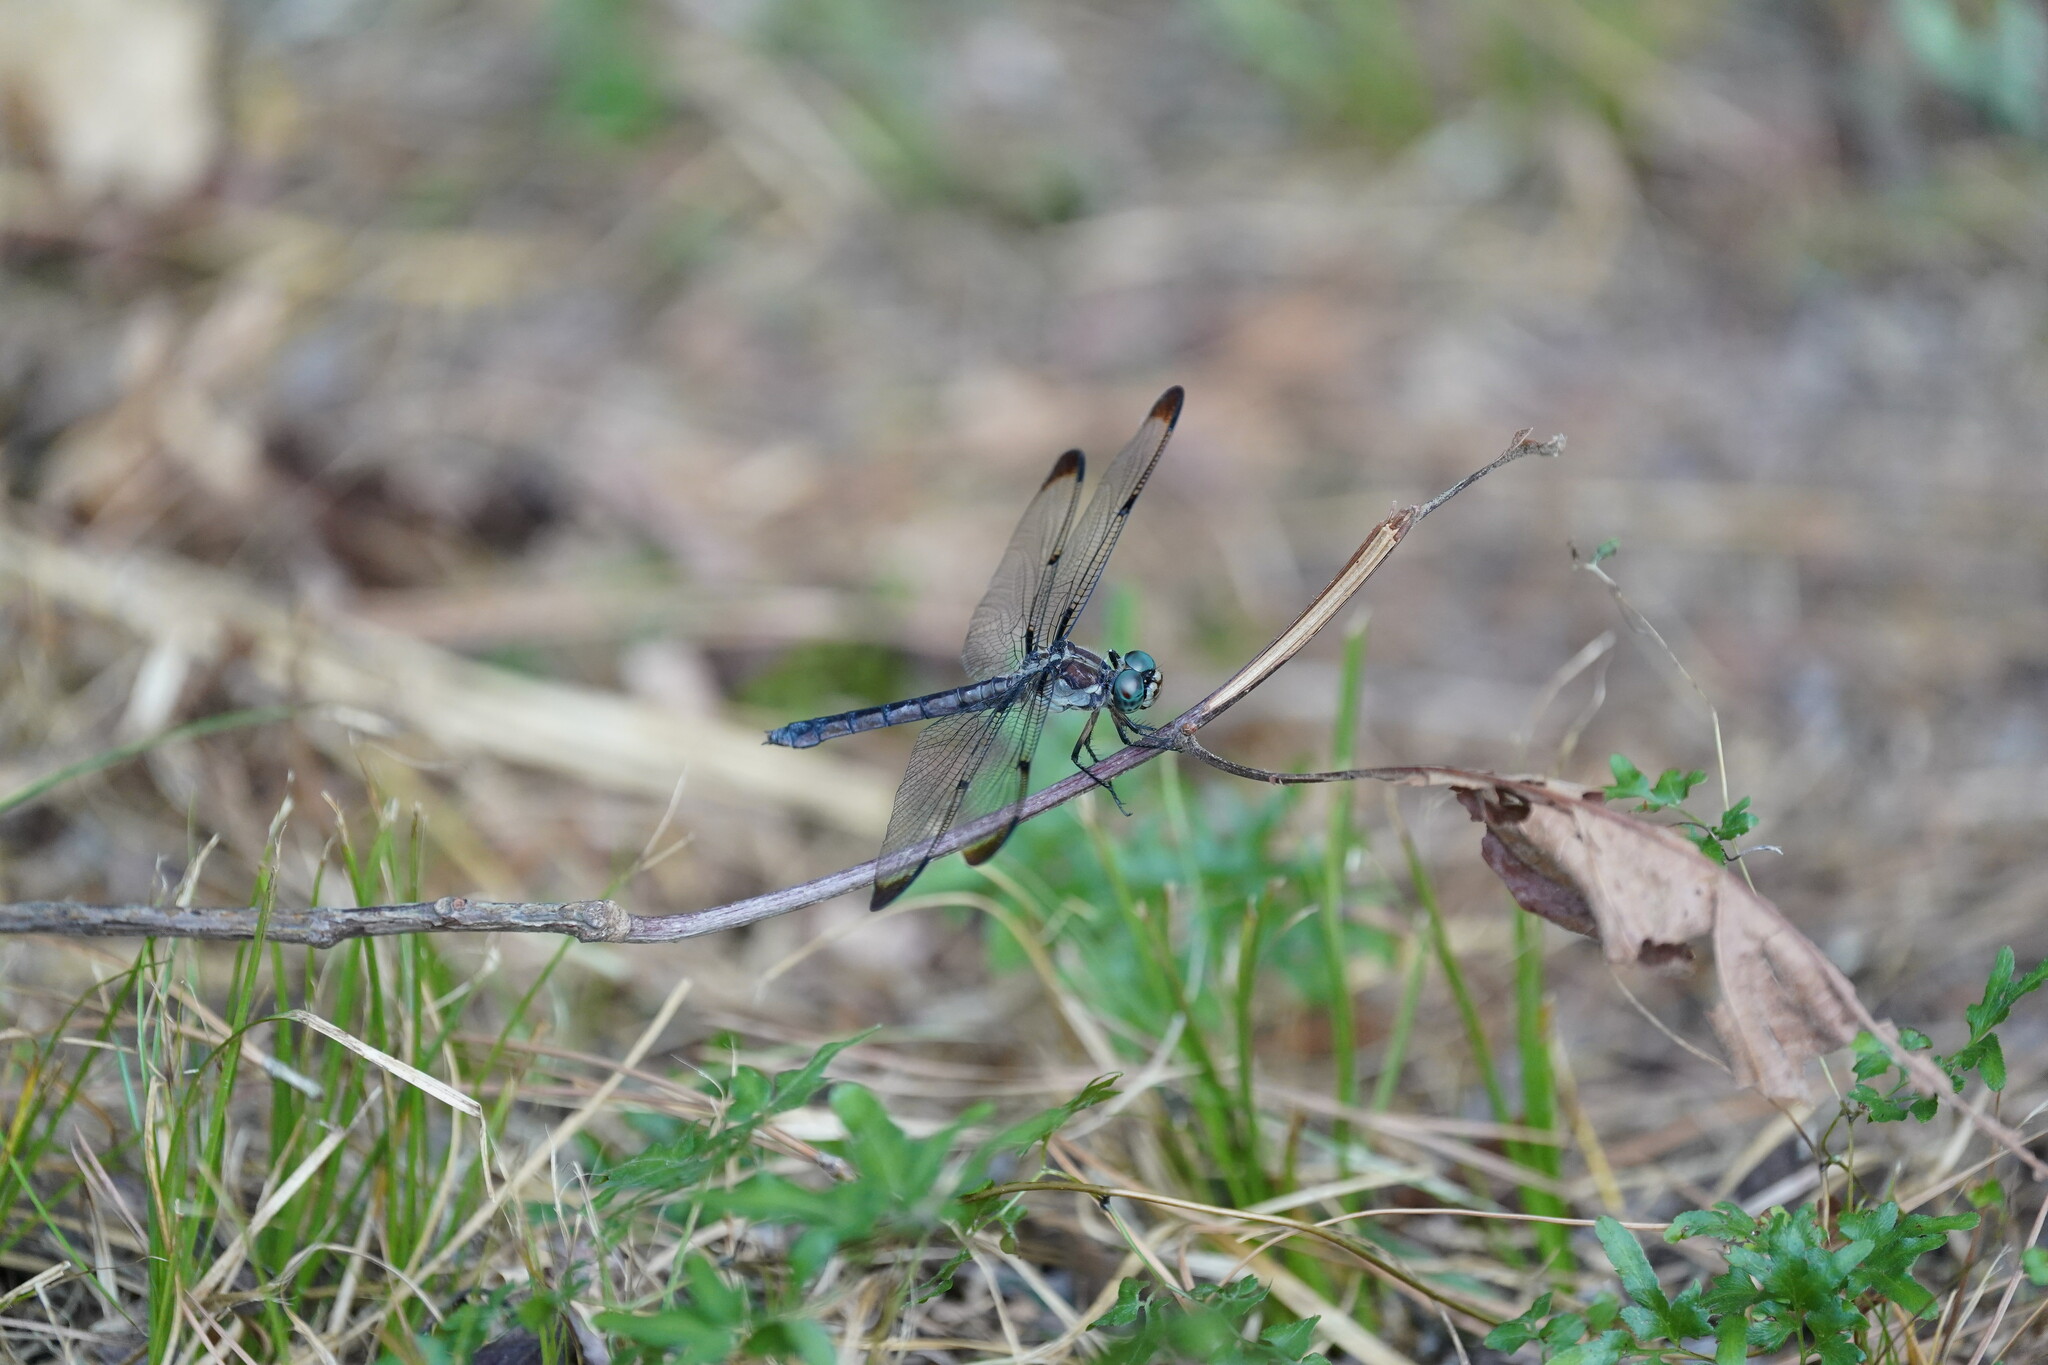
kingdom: Animalia
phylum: Arthropoda
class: Insecta
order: Odonata
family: Libellulidae
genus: Libellula
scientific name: Libellula vibrans
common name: Great blue skimmer
